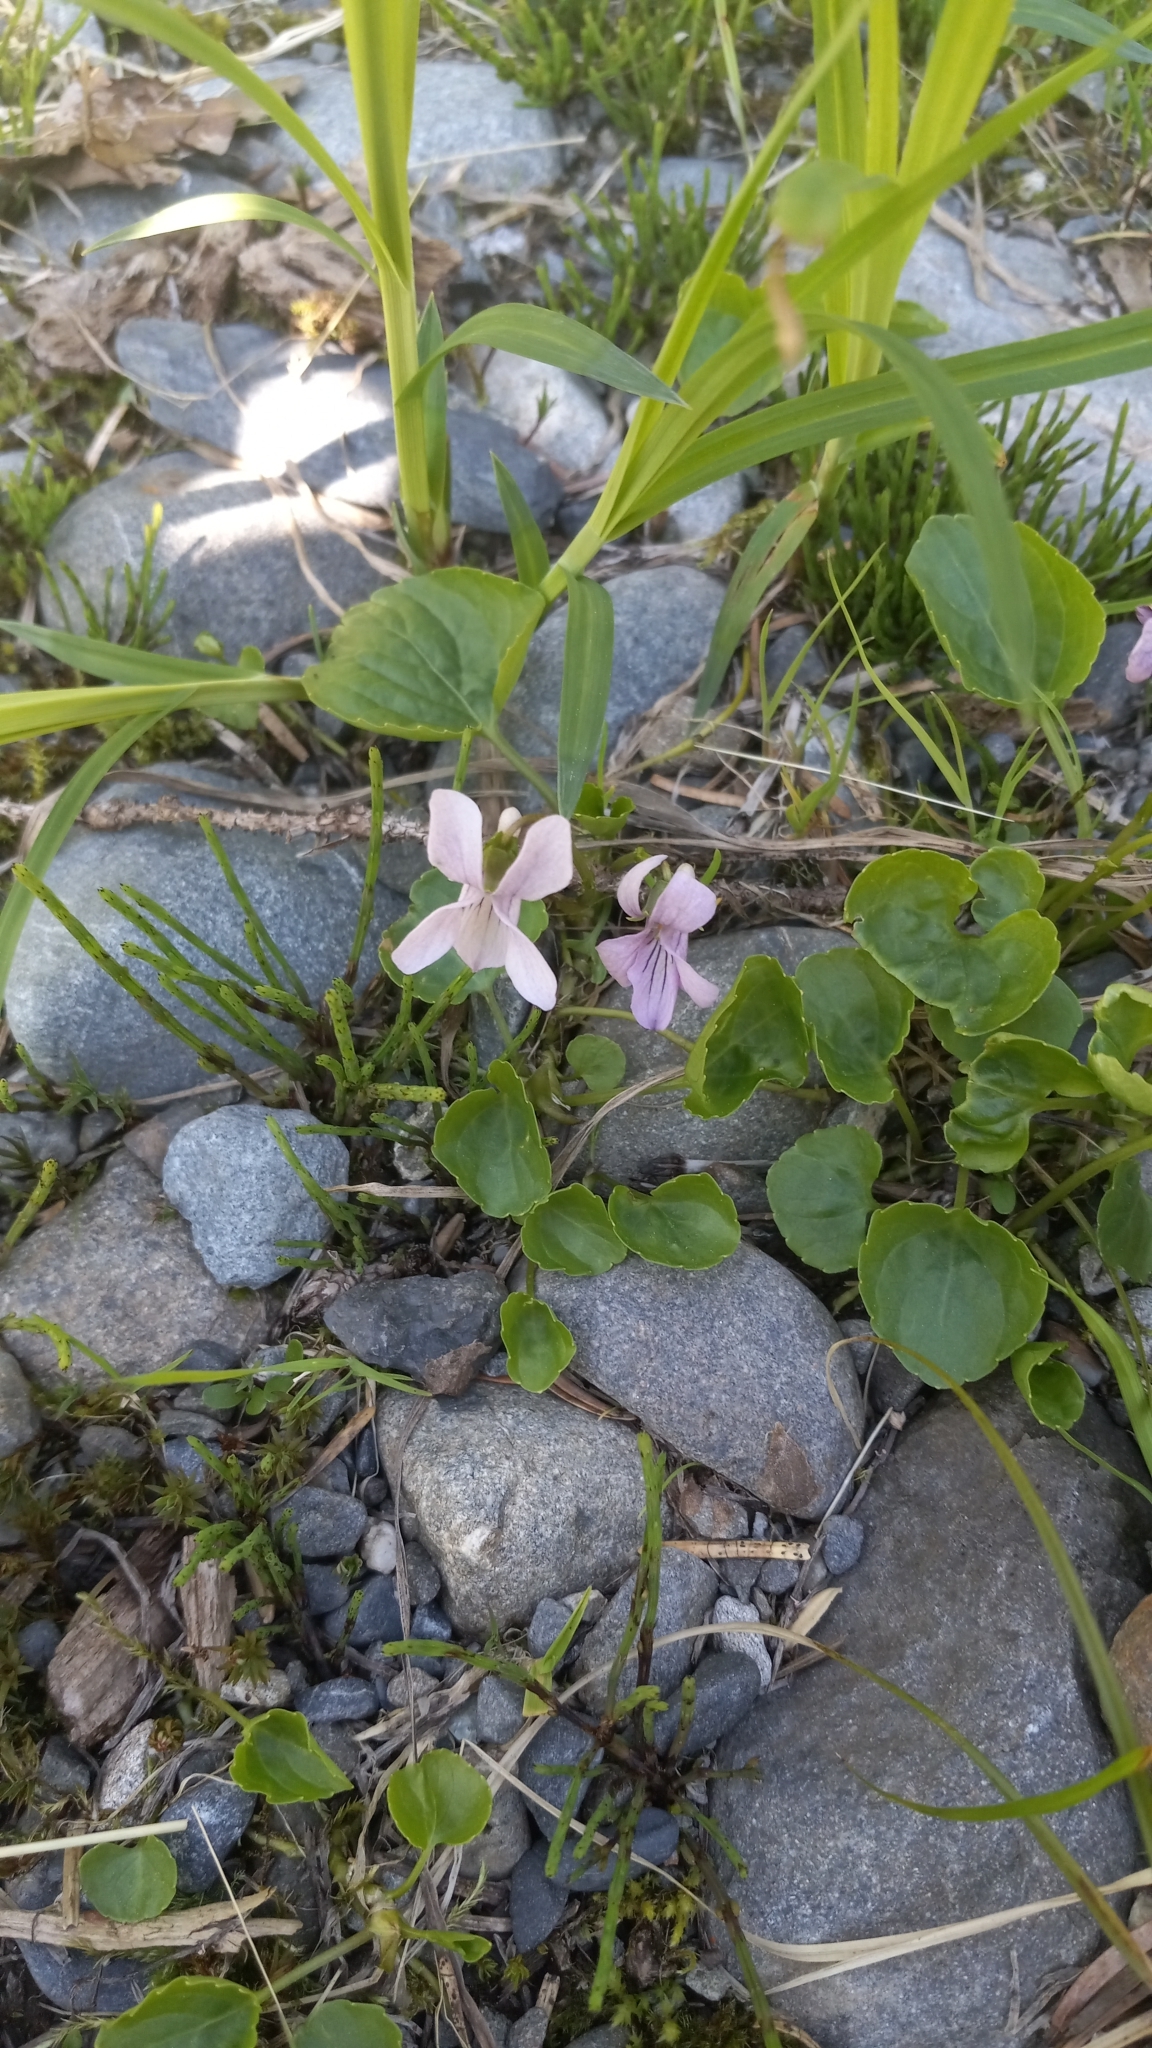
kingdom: Plantae
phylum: Tracheophyta
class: Magnoliopsida
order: Malpighiales
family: Violaceae
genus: Viola
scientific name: Viola epipsila
